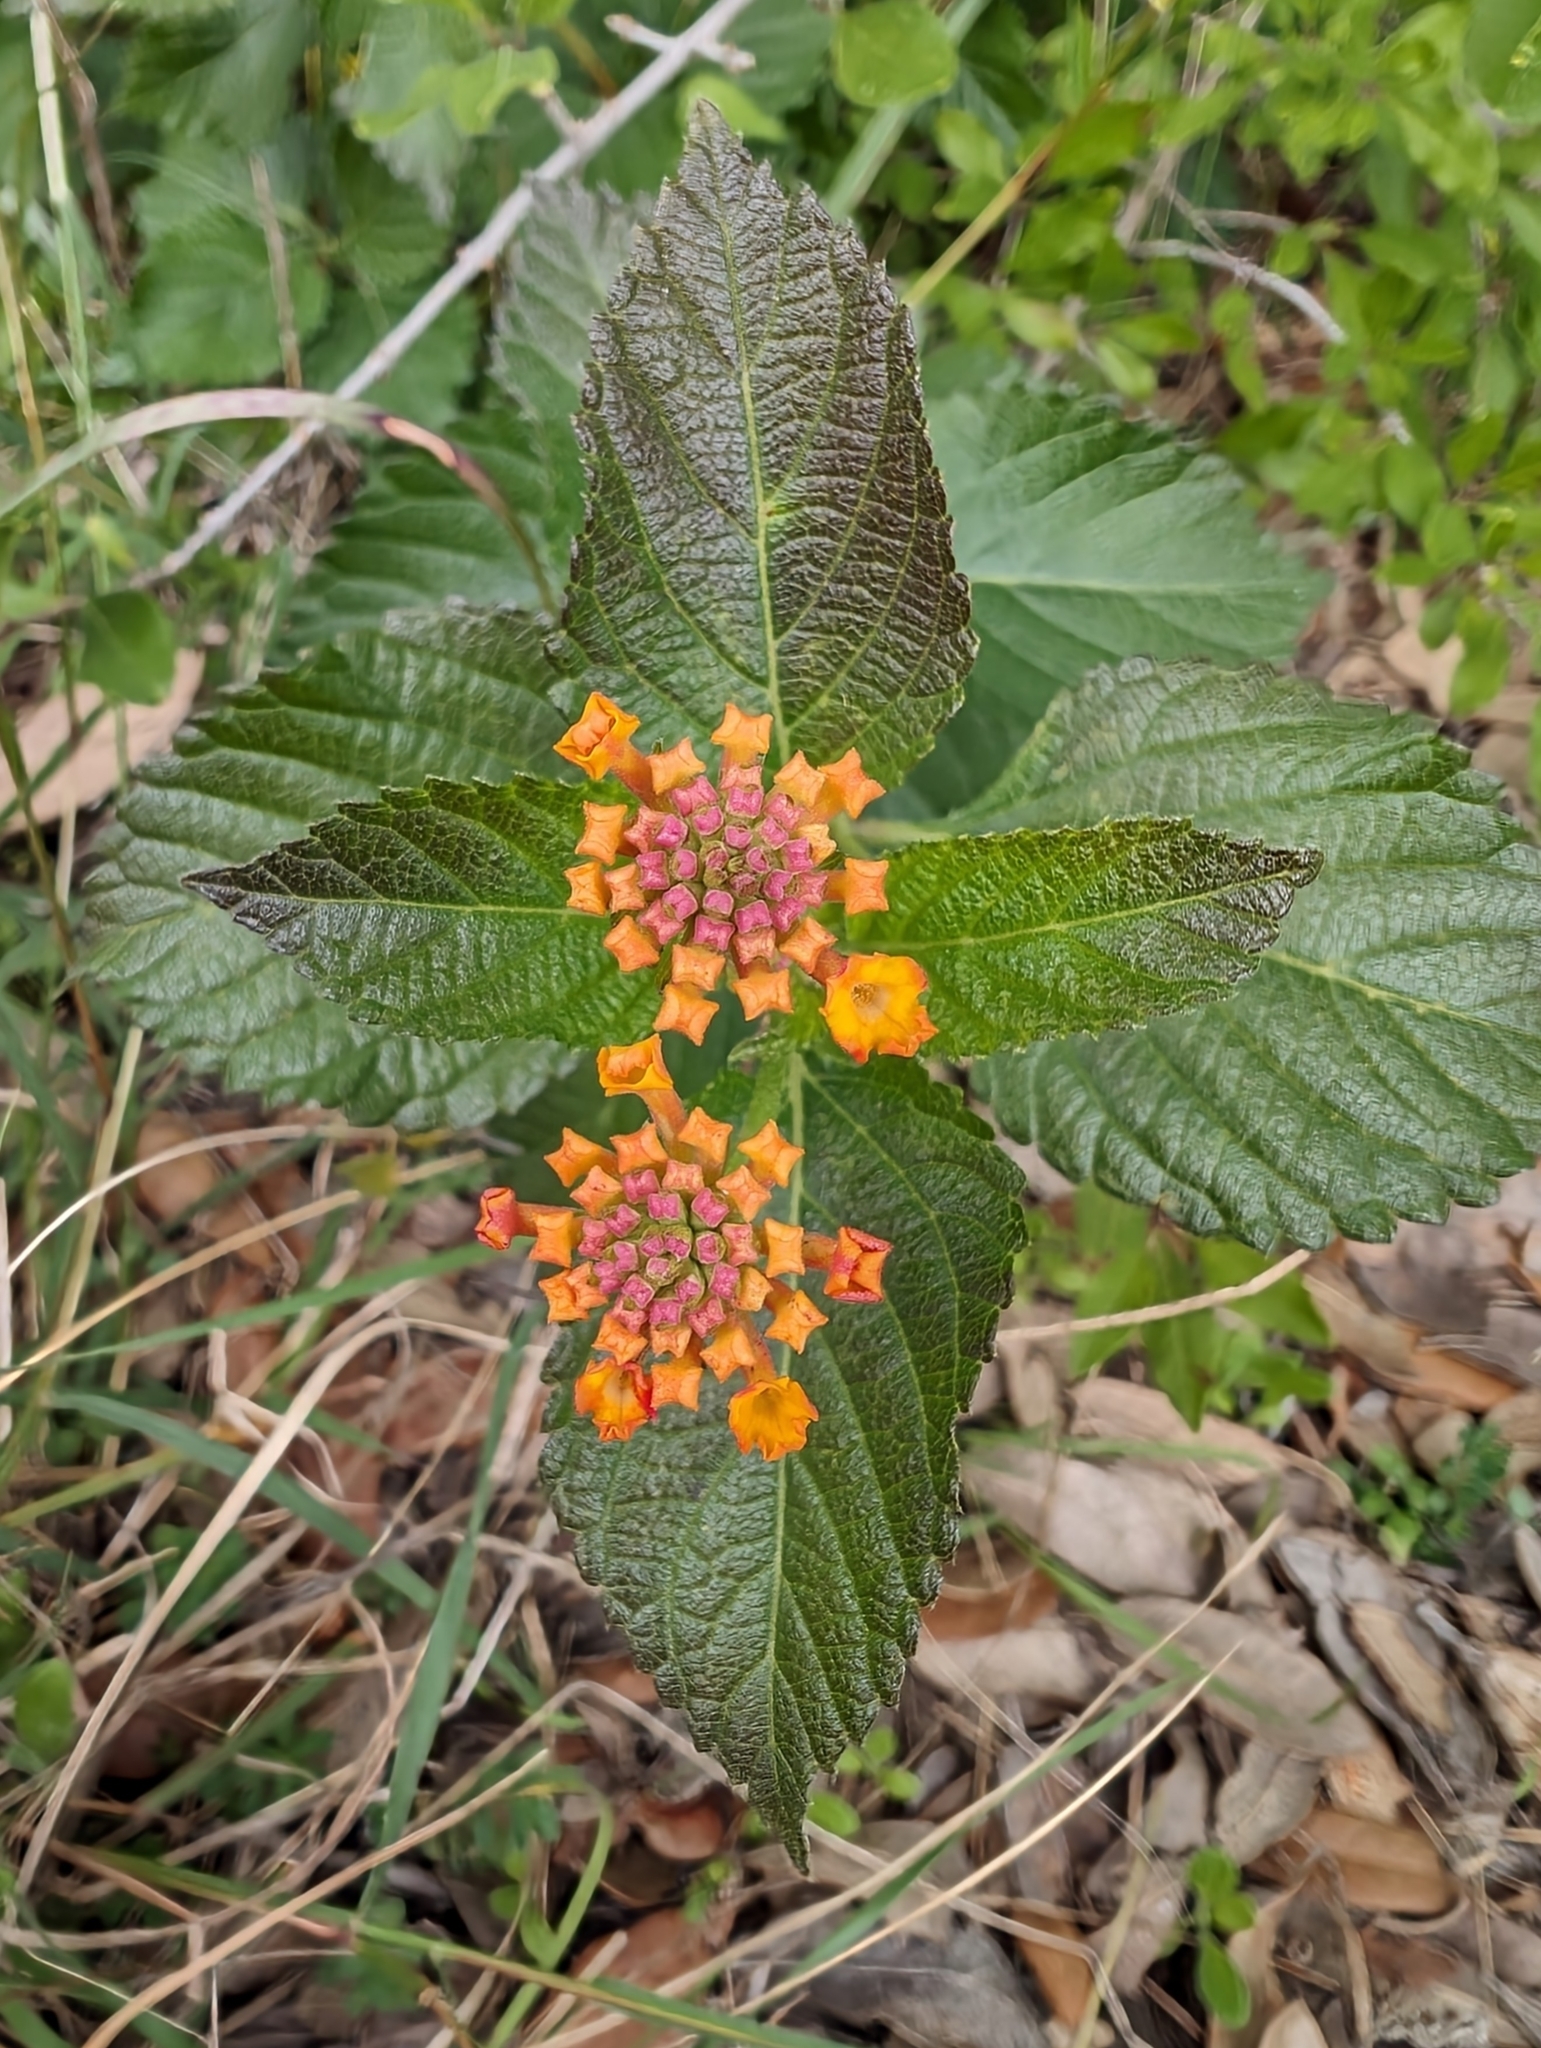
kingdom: Plantae
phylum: Tracheophyta
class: Magnoliopsida
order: Lamiales
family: Verbenaceae
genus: Lantana
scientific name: Lantana urticoides
